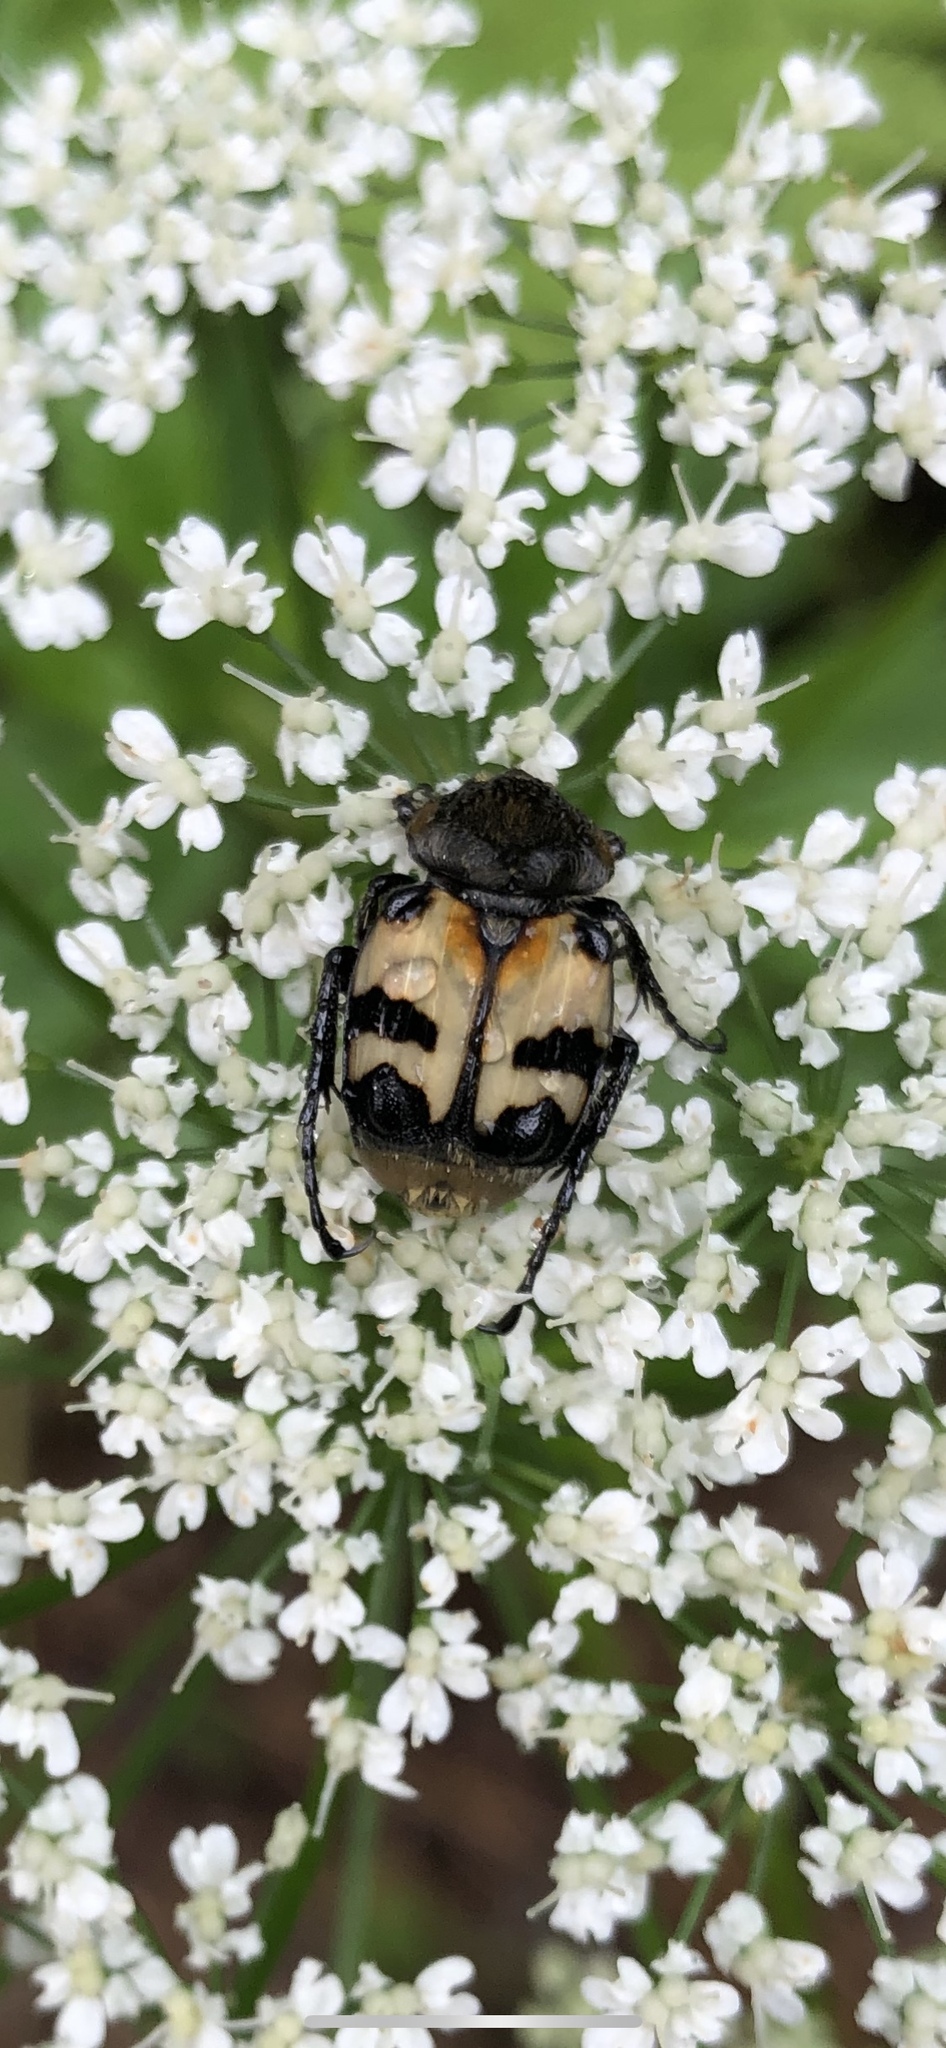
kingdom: Animalia
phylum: Arthropoda
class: Insecta
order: Coleoptera
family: Scarabaeidae
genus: Trichius
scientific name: Trichius fasciatus
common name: Bee beetle
